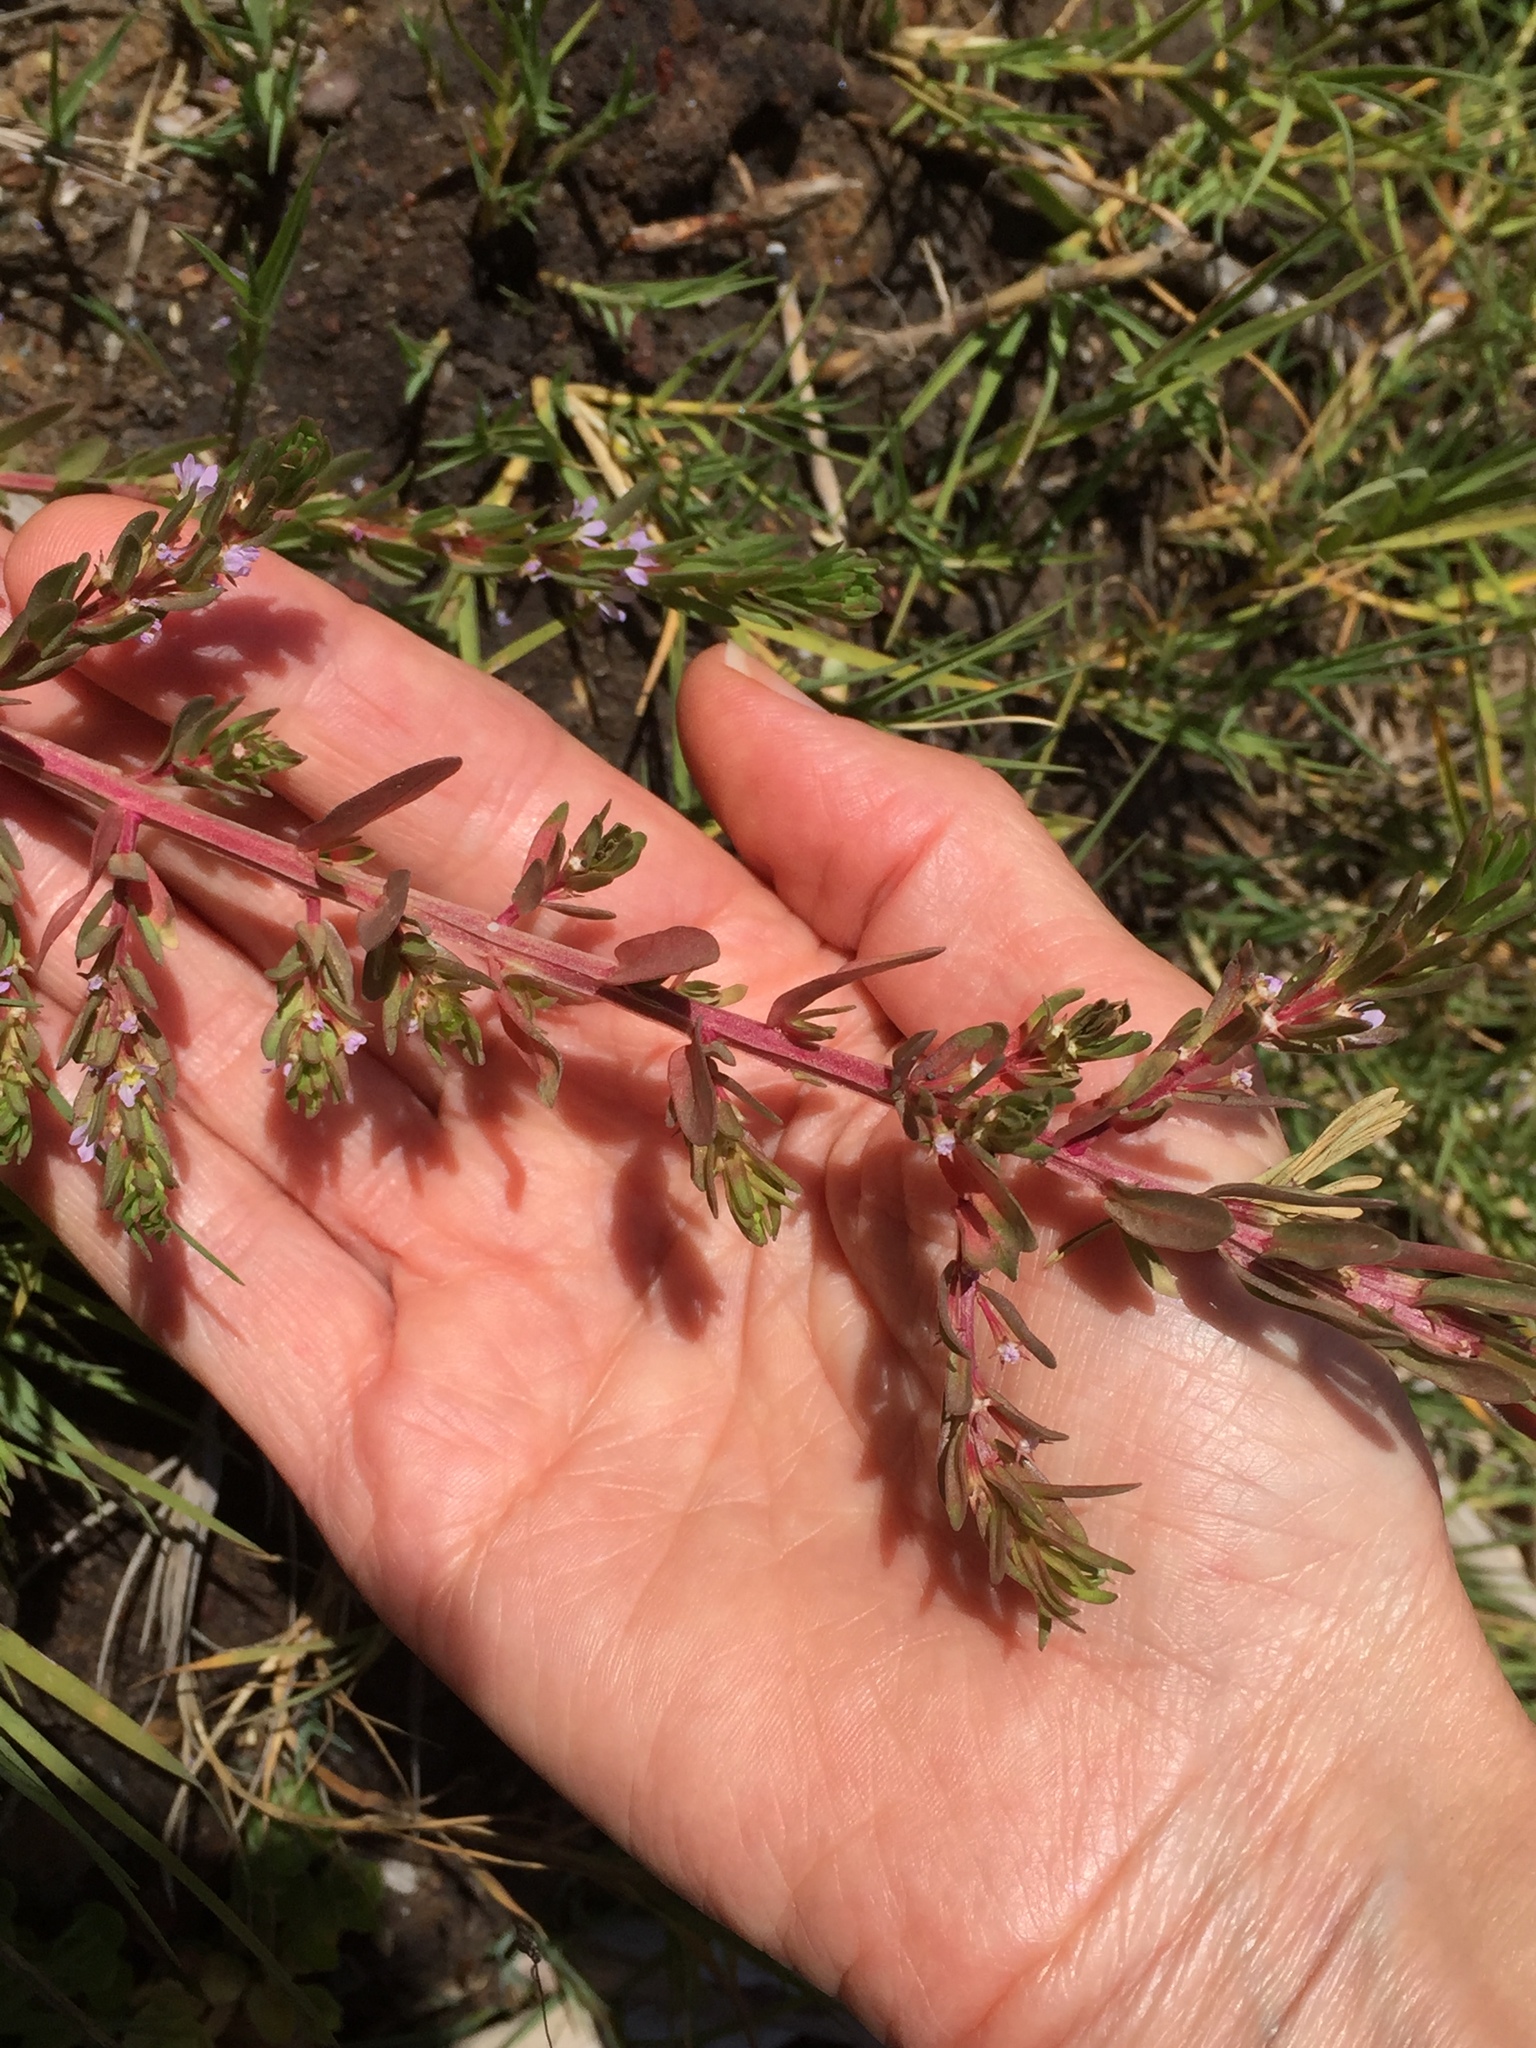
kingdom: Plantae
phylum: Tracheophyta
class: Magnoliopsida
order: Myrtales
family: Lythraceae
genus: Lythrum
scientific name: Lythrum hyssopifolia
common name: Grass-poly
